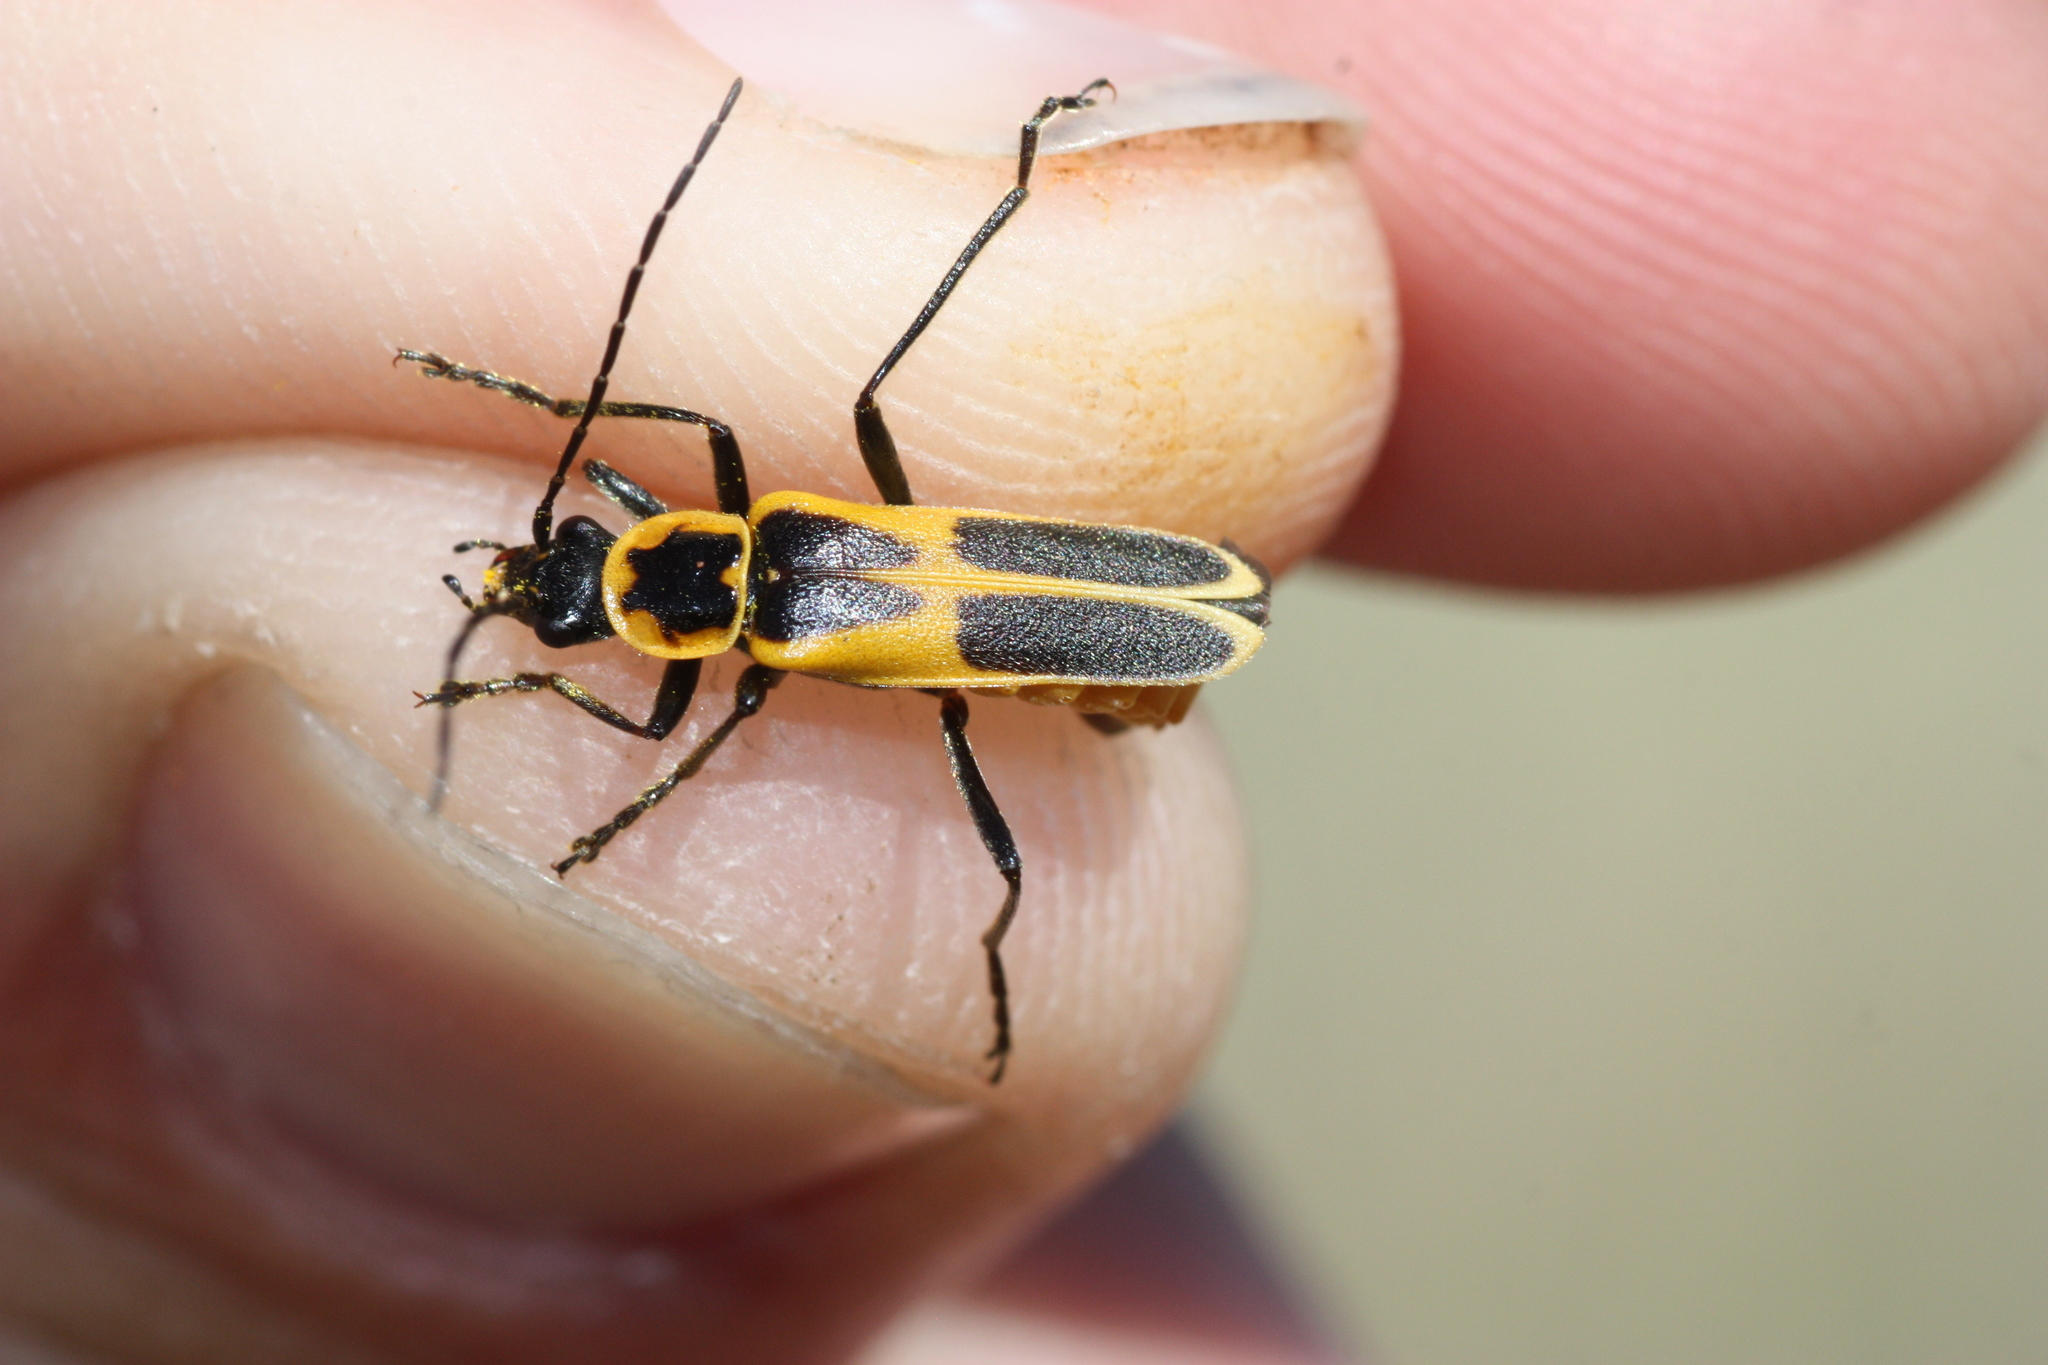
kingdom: Animalia
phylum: Arthropoda
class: Insecta
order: Coleoptera
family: Cantharidae
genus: Chauliognathus
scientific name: Chauliognathus scutellaris
